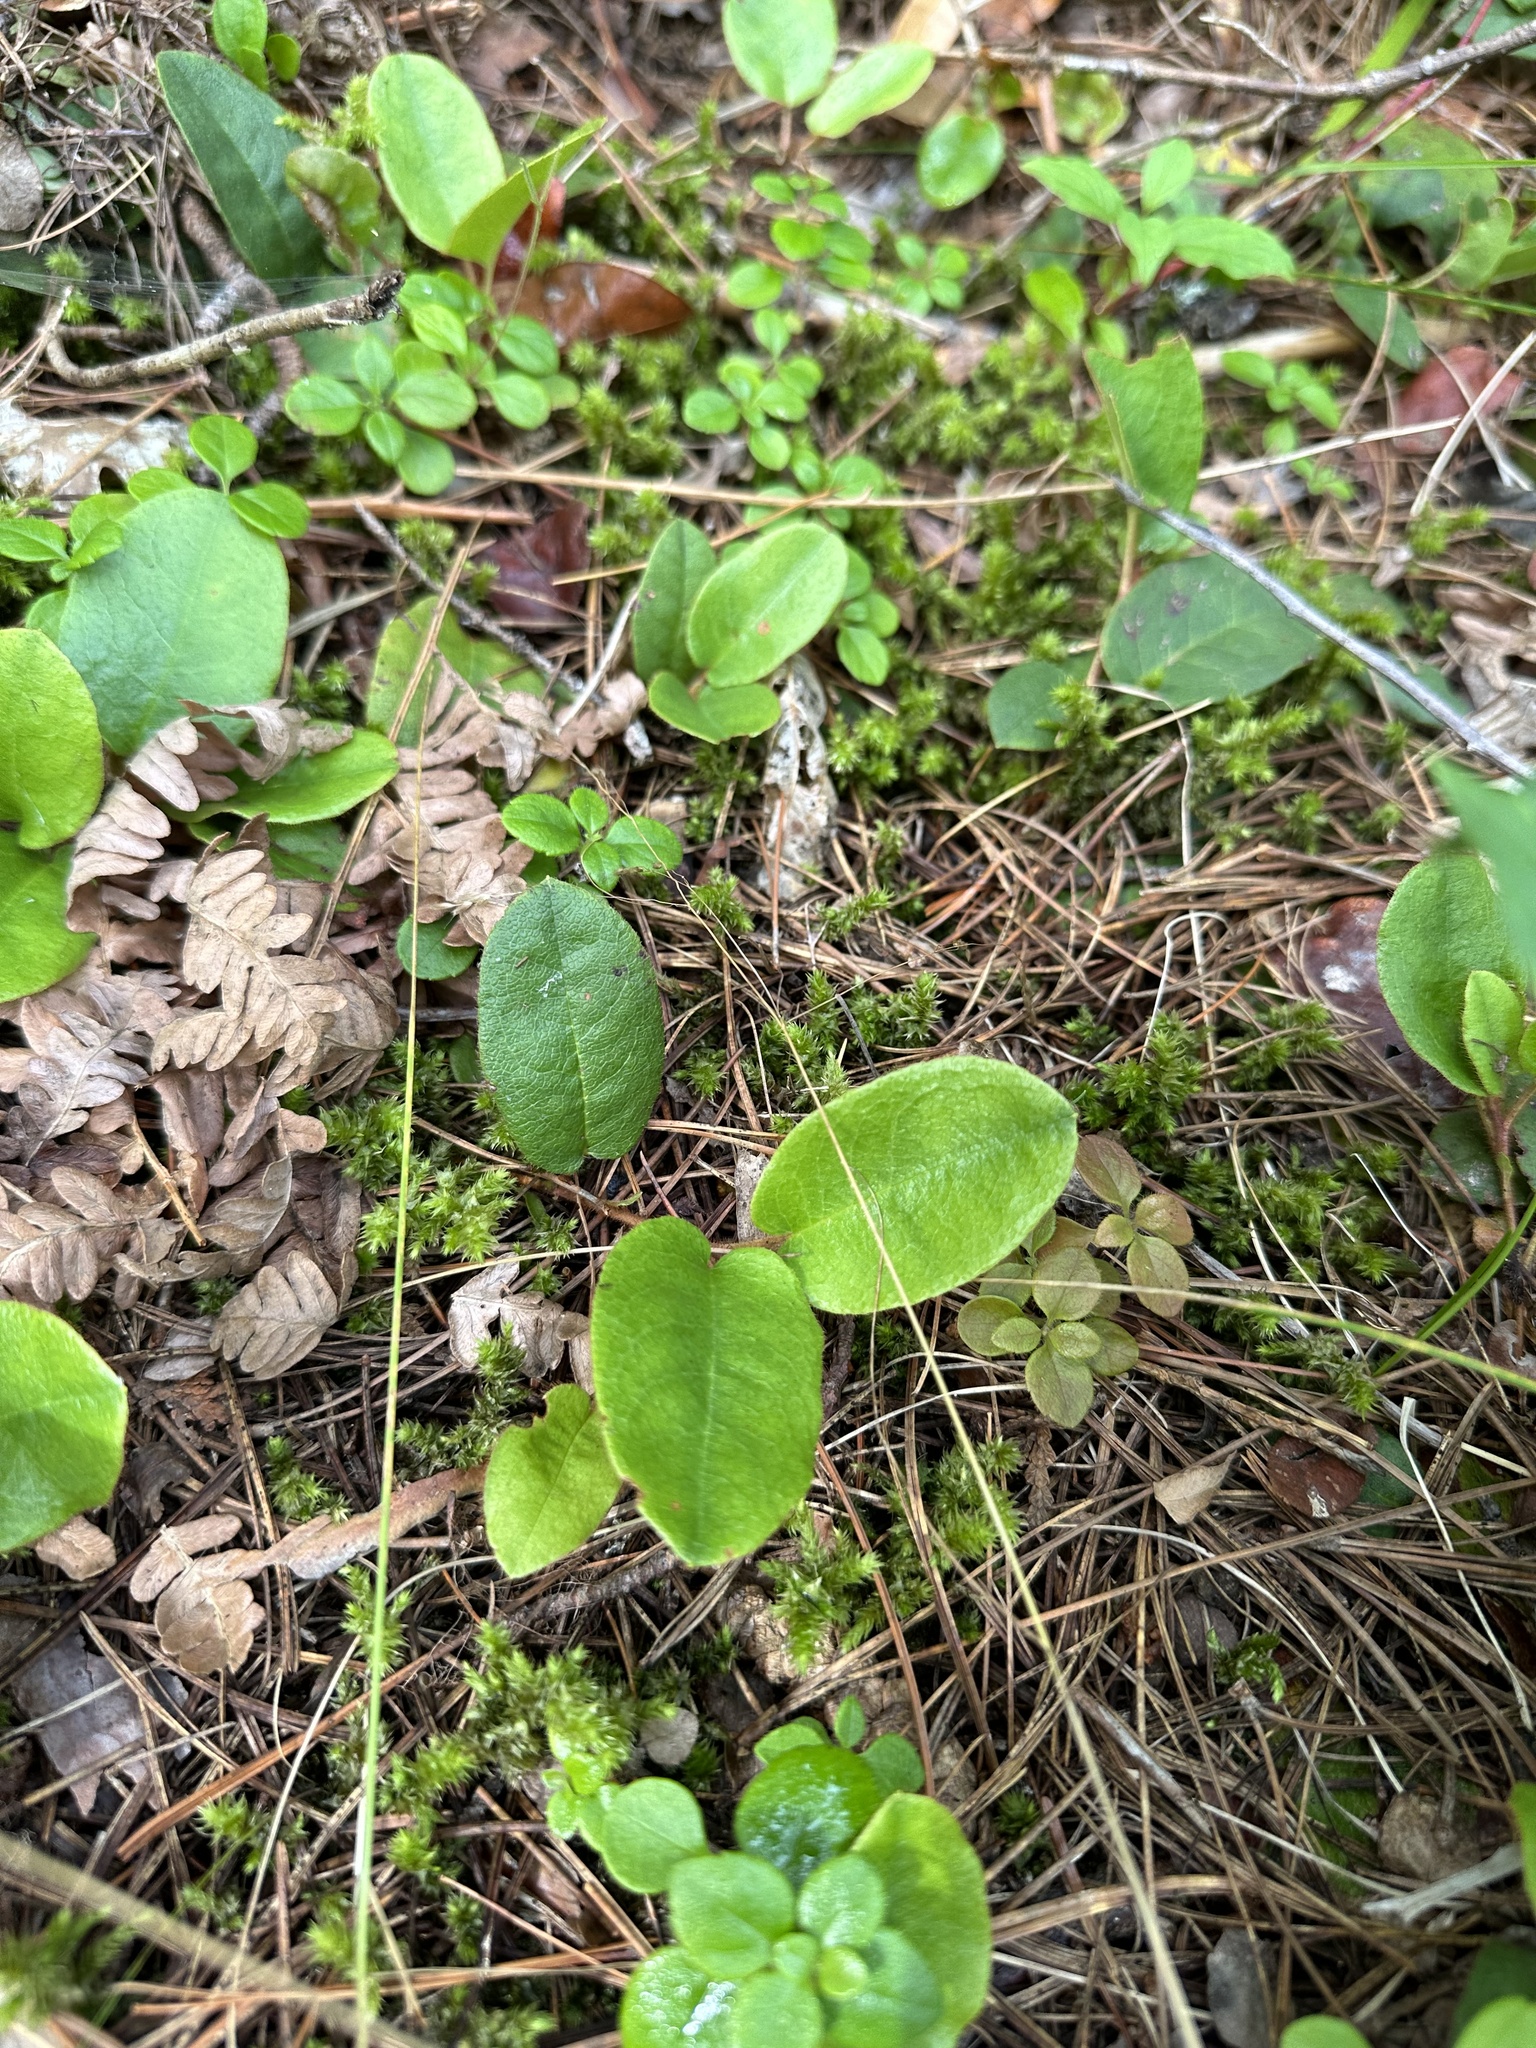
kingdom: Plantae
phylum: Tracheophyta
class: Magnoliopsida
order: Ericales
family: Ericaceae
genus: Epigaea
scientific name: Epigaea repens
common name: Gravelroot
